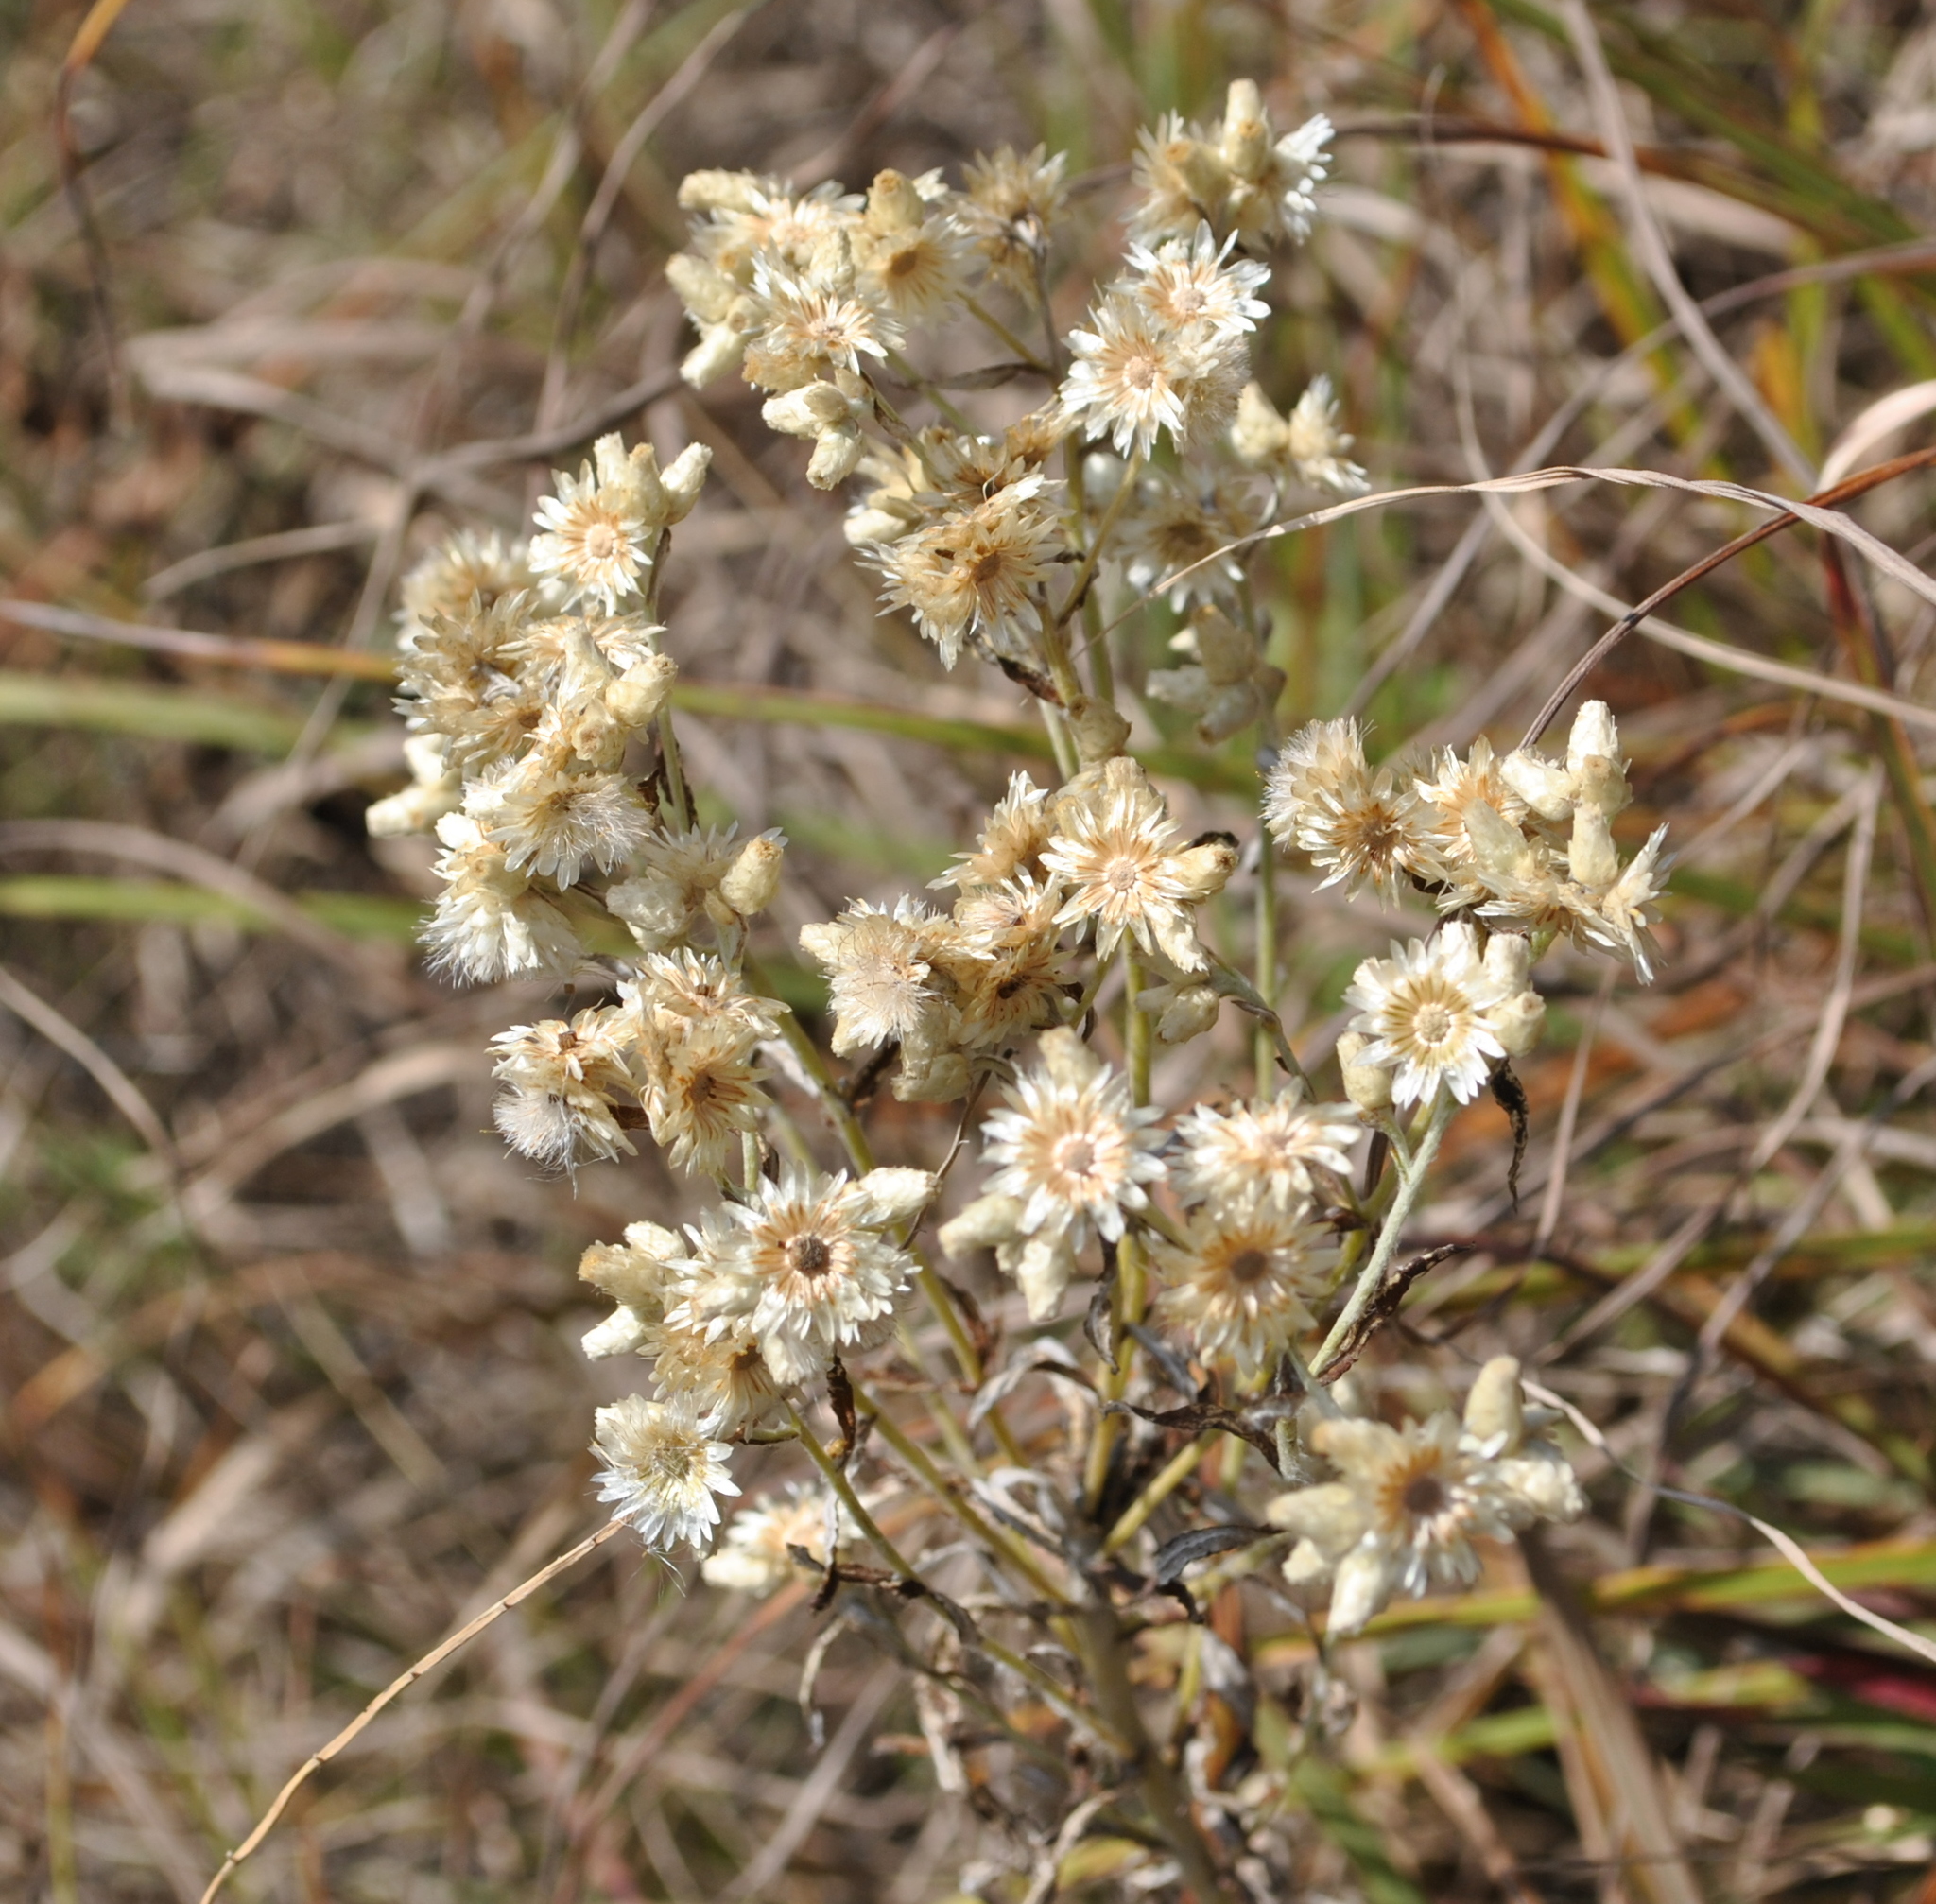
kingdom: Plantae
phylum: Tracheophyta
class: Magnoliopsida
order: Asterales
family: Asteraceae
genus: Pseudognaphalium
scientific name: Pseudognaphalium obtusifolium
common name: Eastern rabbit-tobacco
